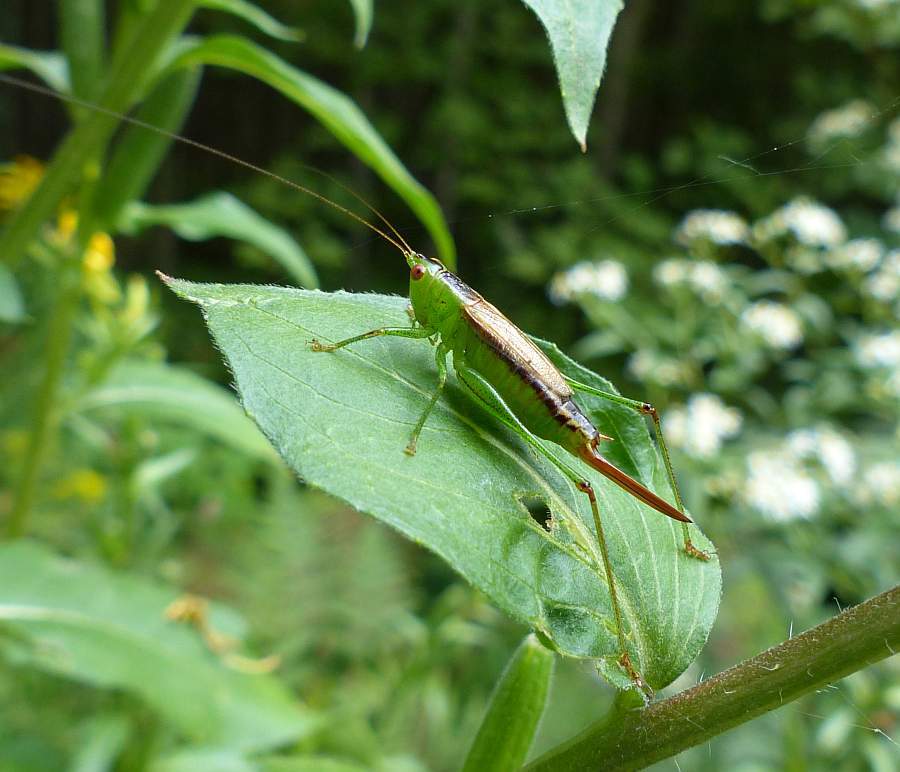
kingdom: Animalia
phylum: Arthropoda
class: Insecta
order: Orthoptera
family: Tettigoniidae
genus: Conocephalus
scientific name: Conocephalus brevipennis
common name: Short-winged meadow katydid
